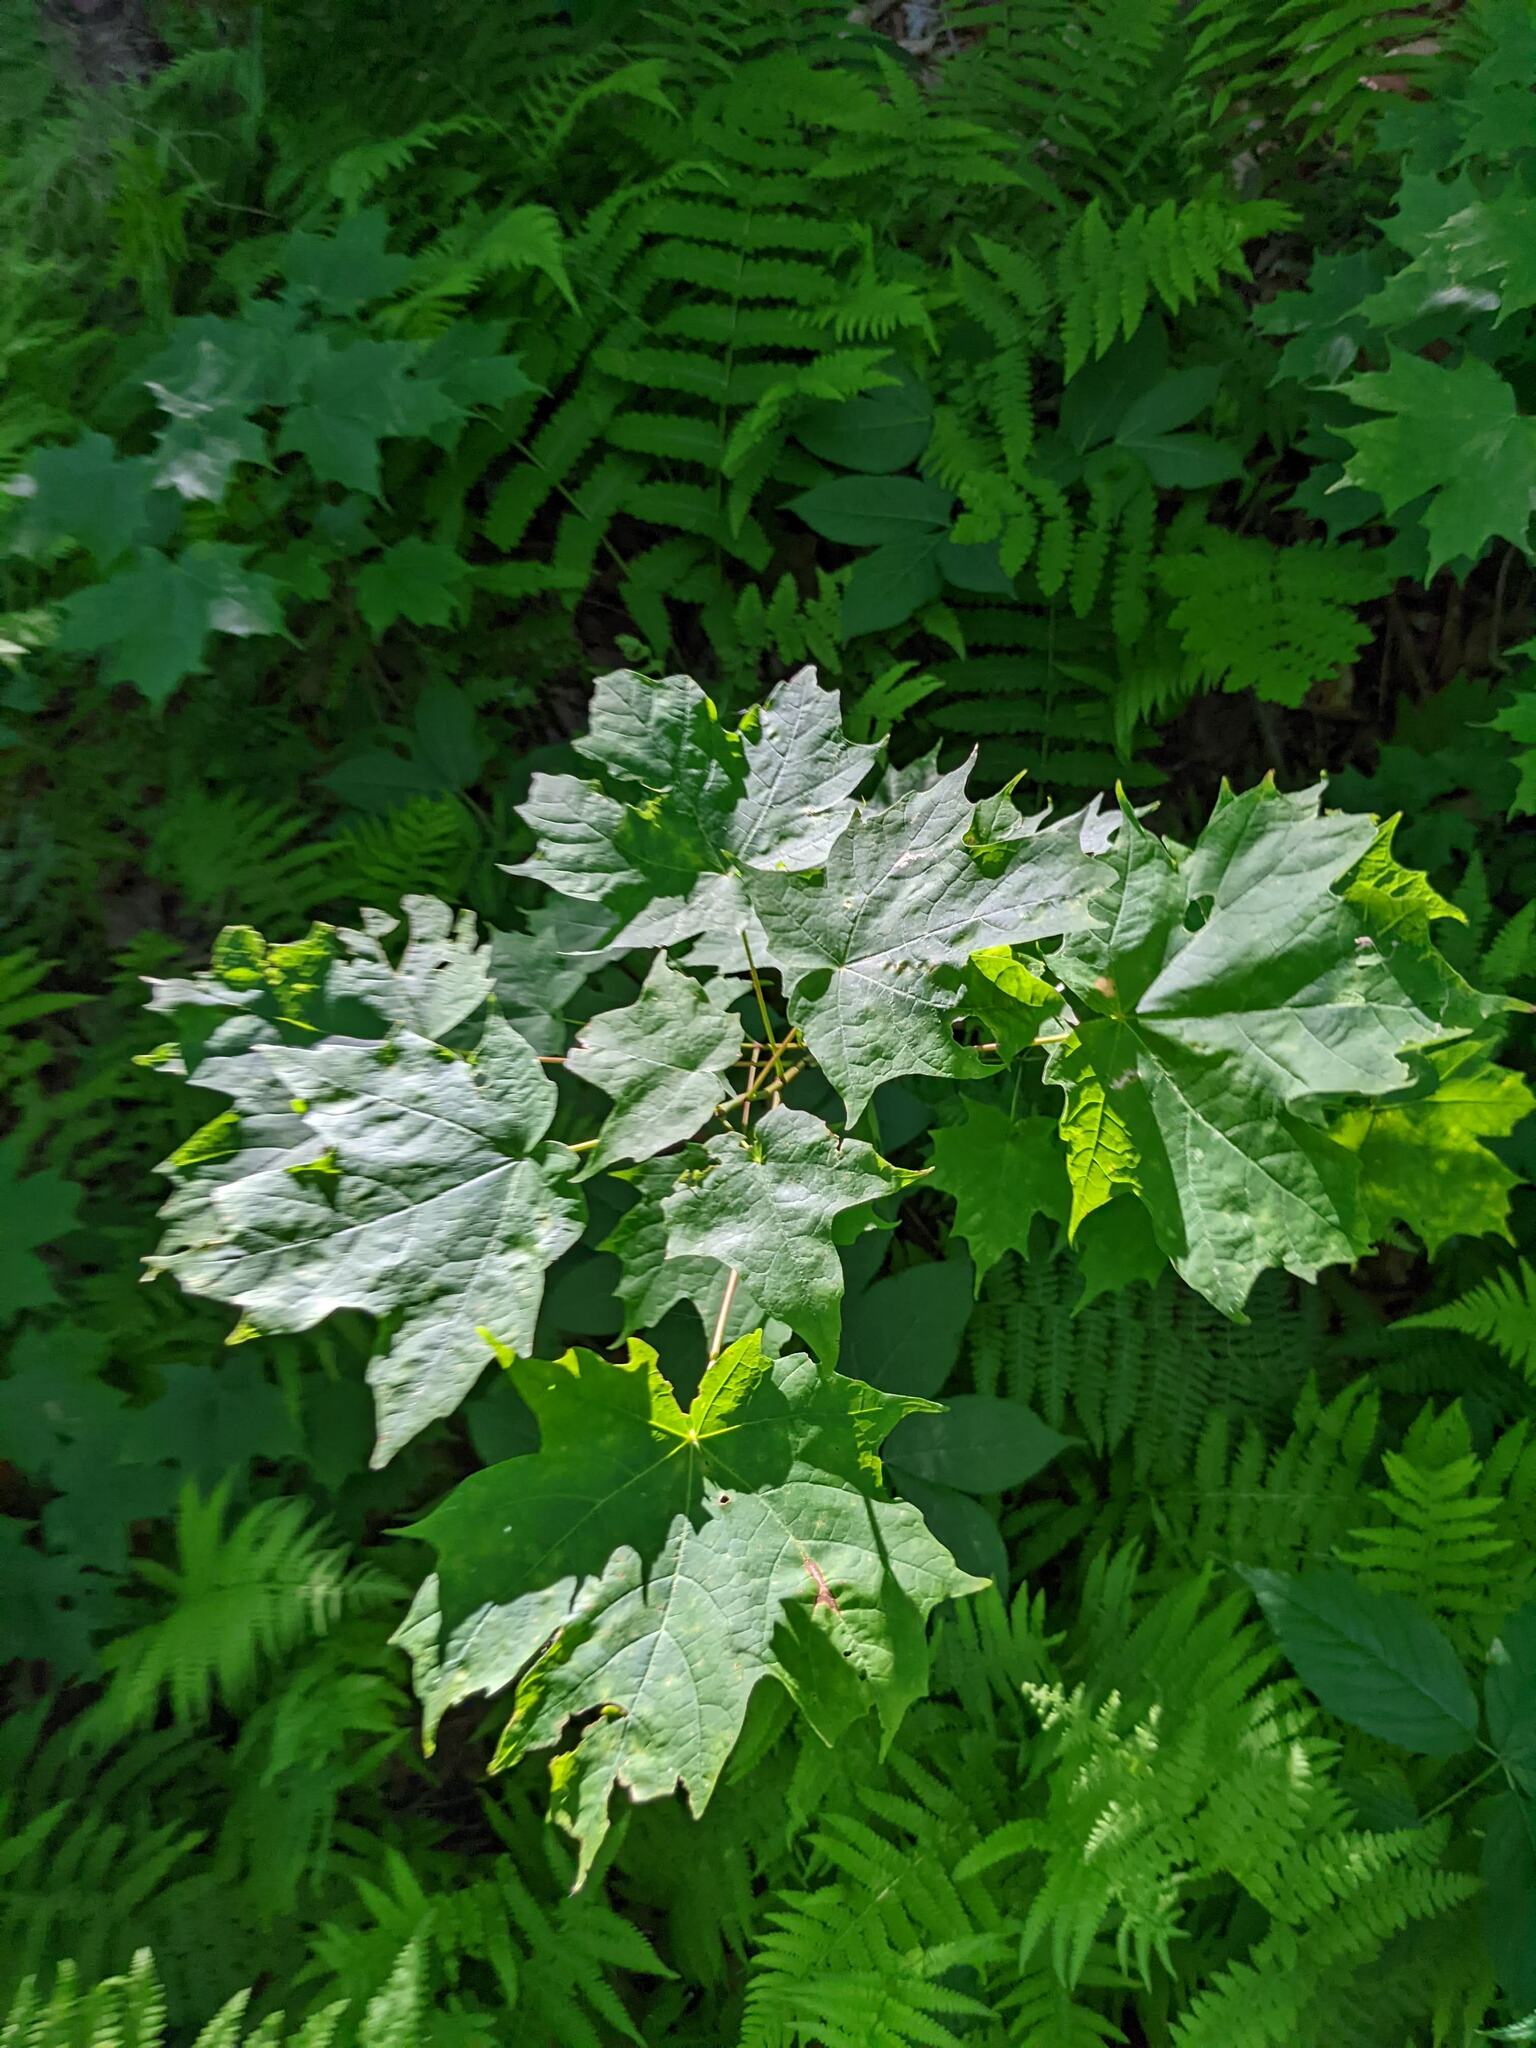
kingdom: Plantae
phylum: Tracheophyta
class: Magnoliopsida
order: Sapindales
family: Sapindaceae
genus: Acer
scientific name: Acer saccharum
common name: Sugar maple
